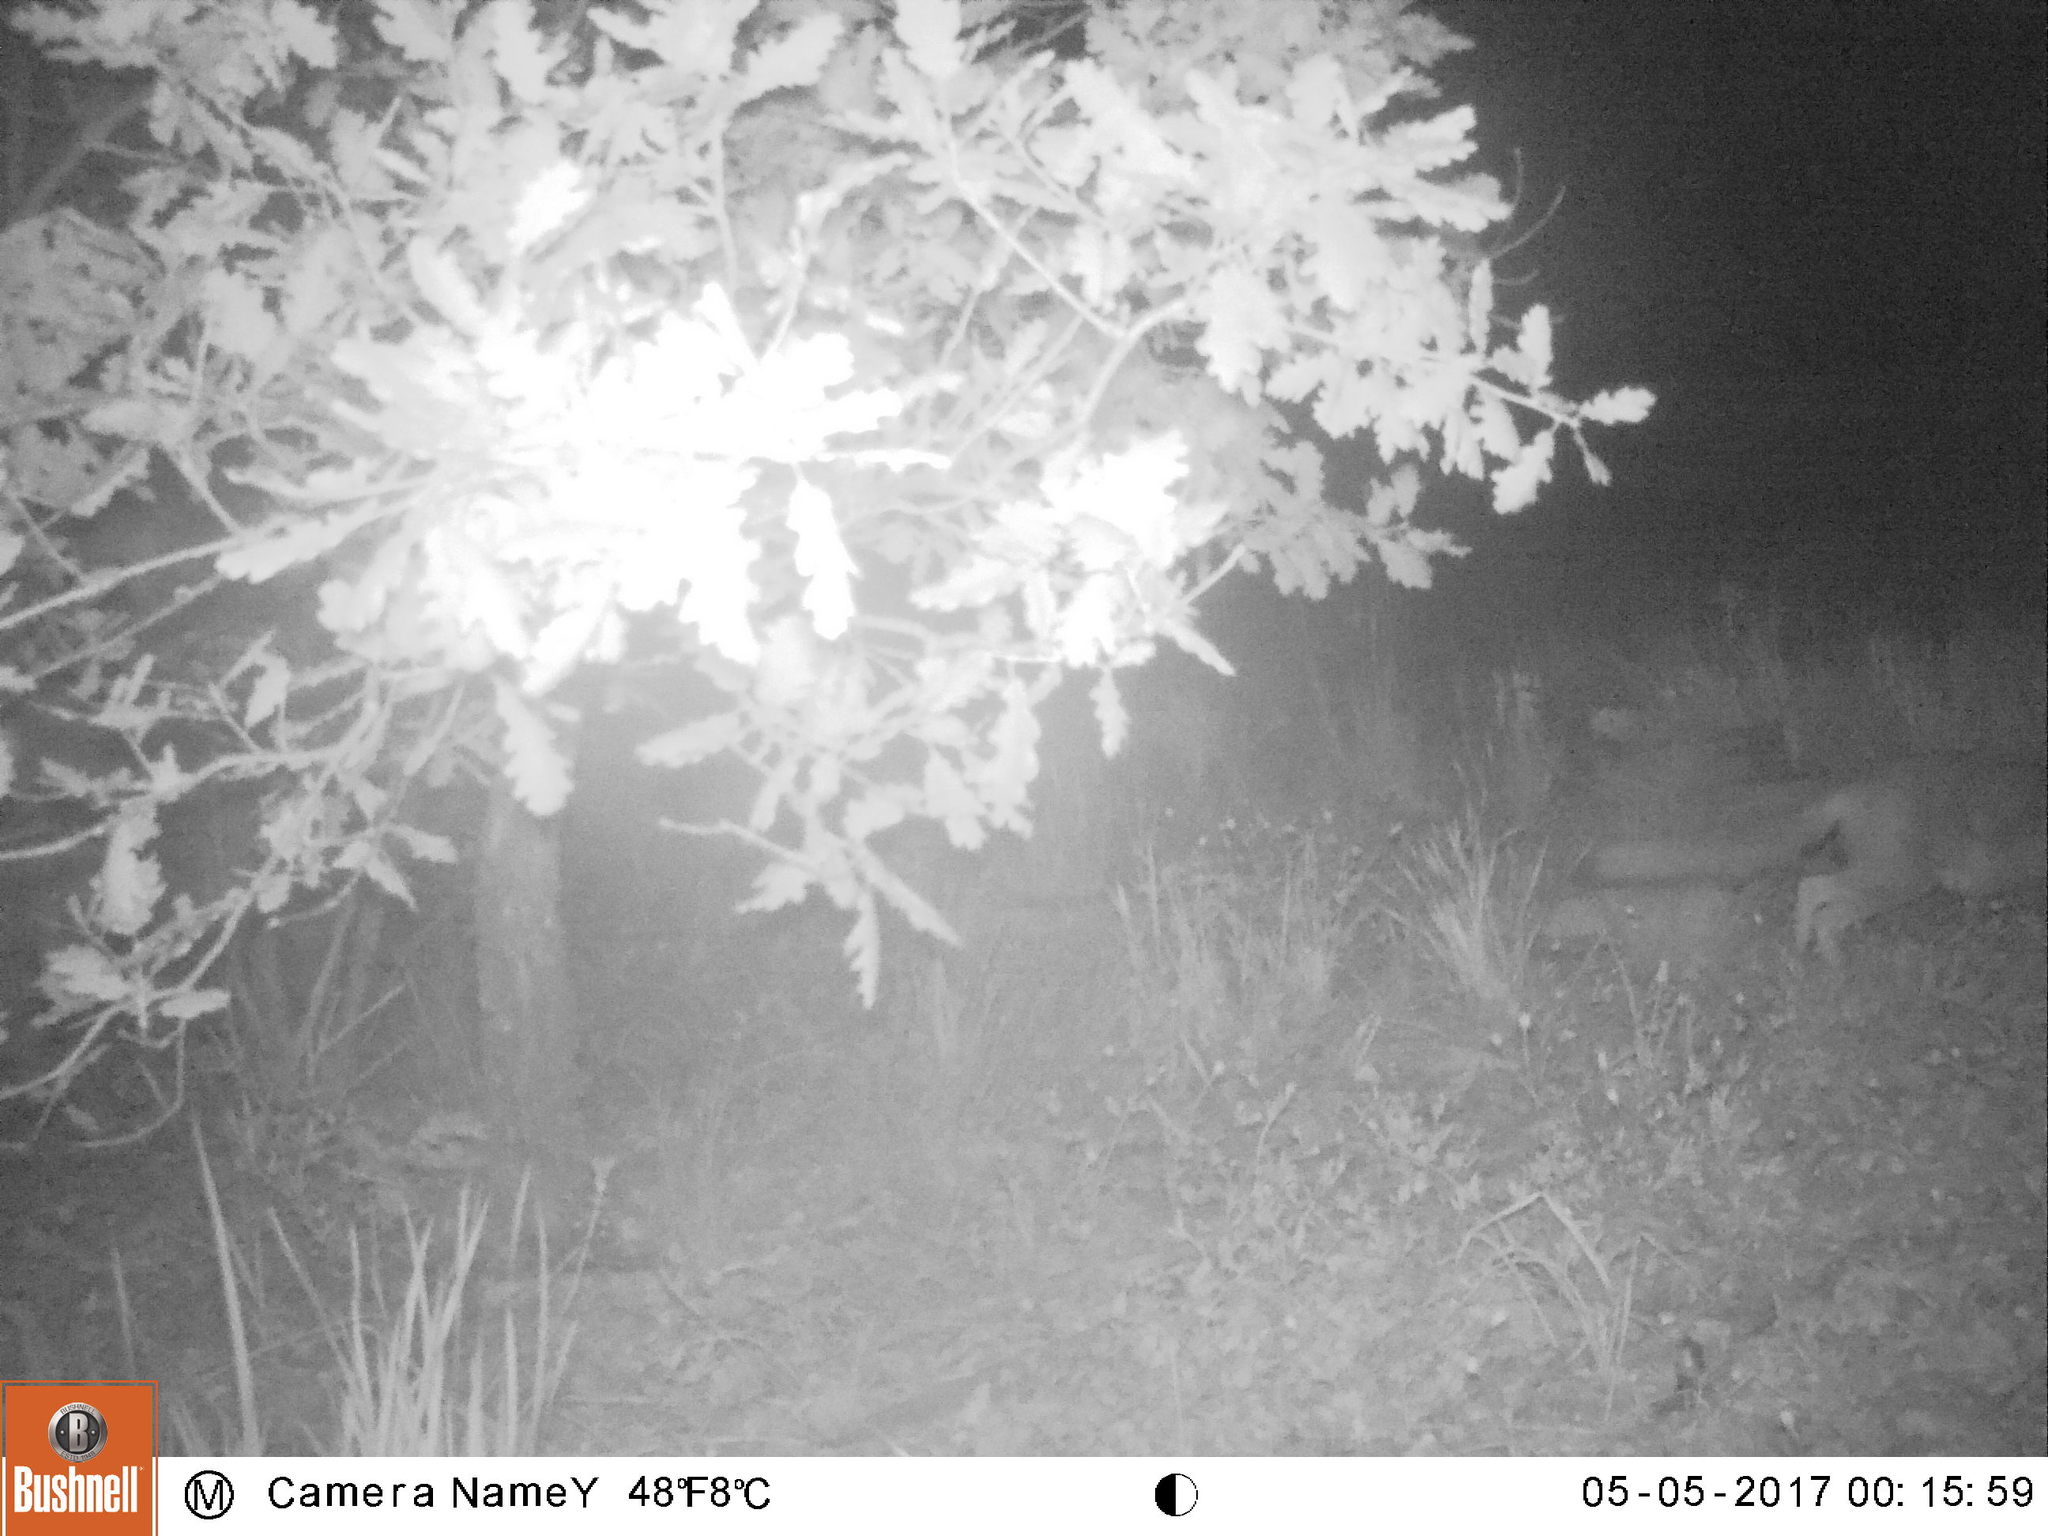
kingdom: Animalia
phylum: Chordata
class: Mammalia
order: Carnivora
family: Canidae
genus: Vulpes
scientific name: Vulpes vulpes
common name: Red fox
